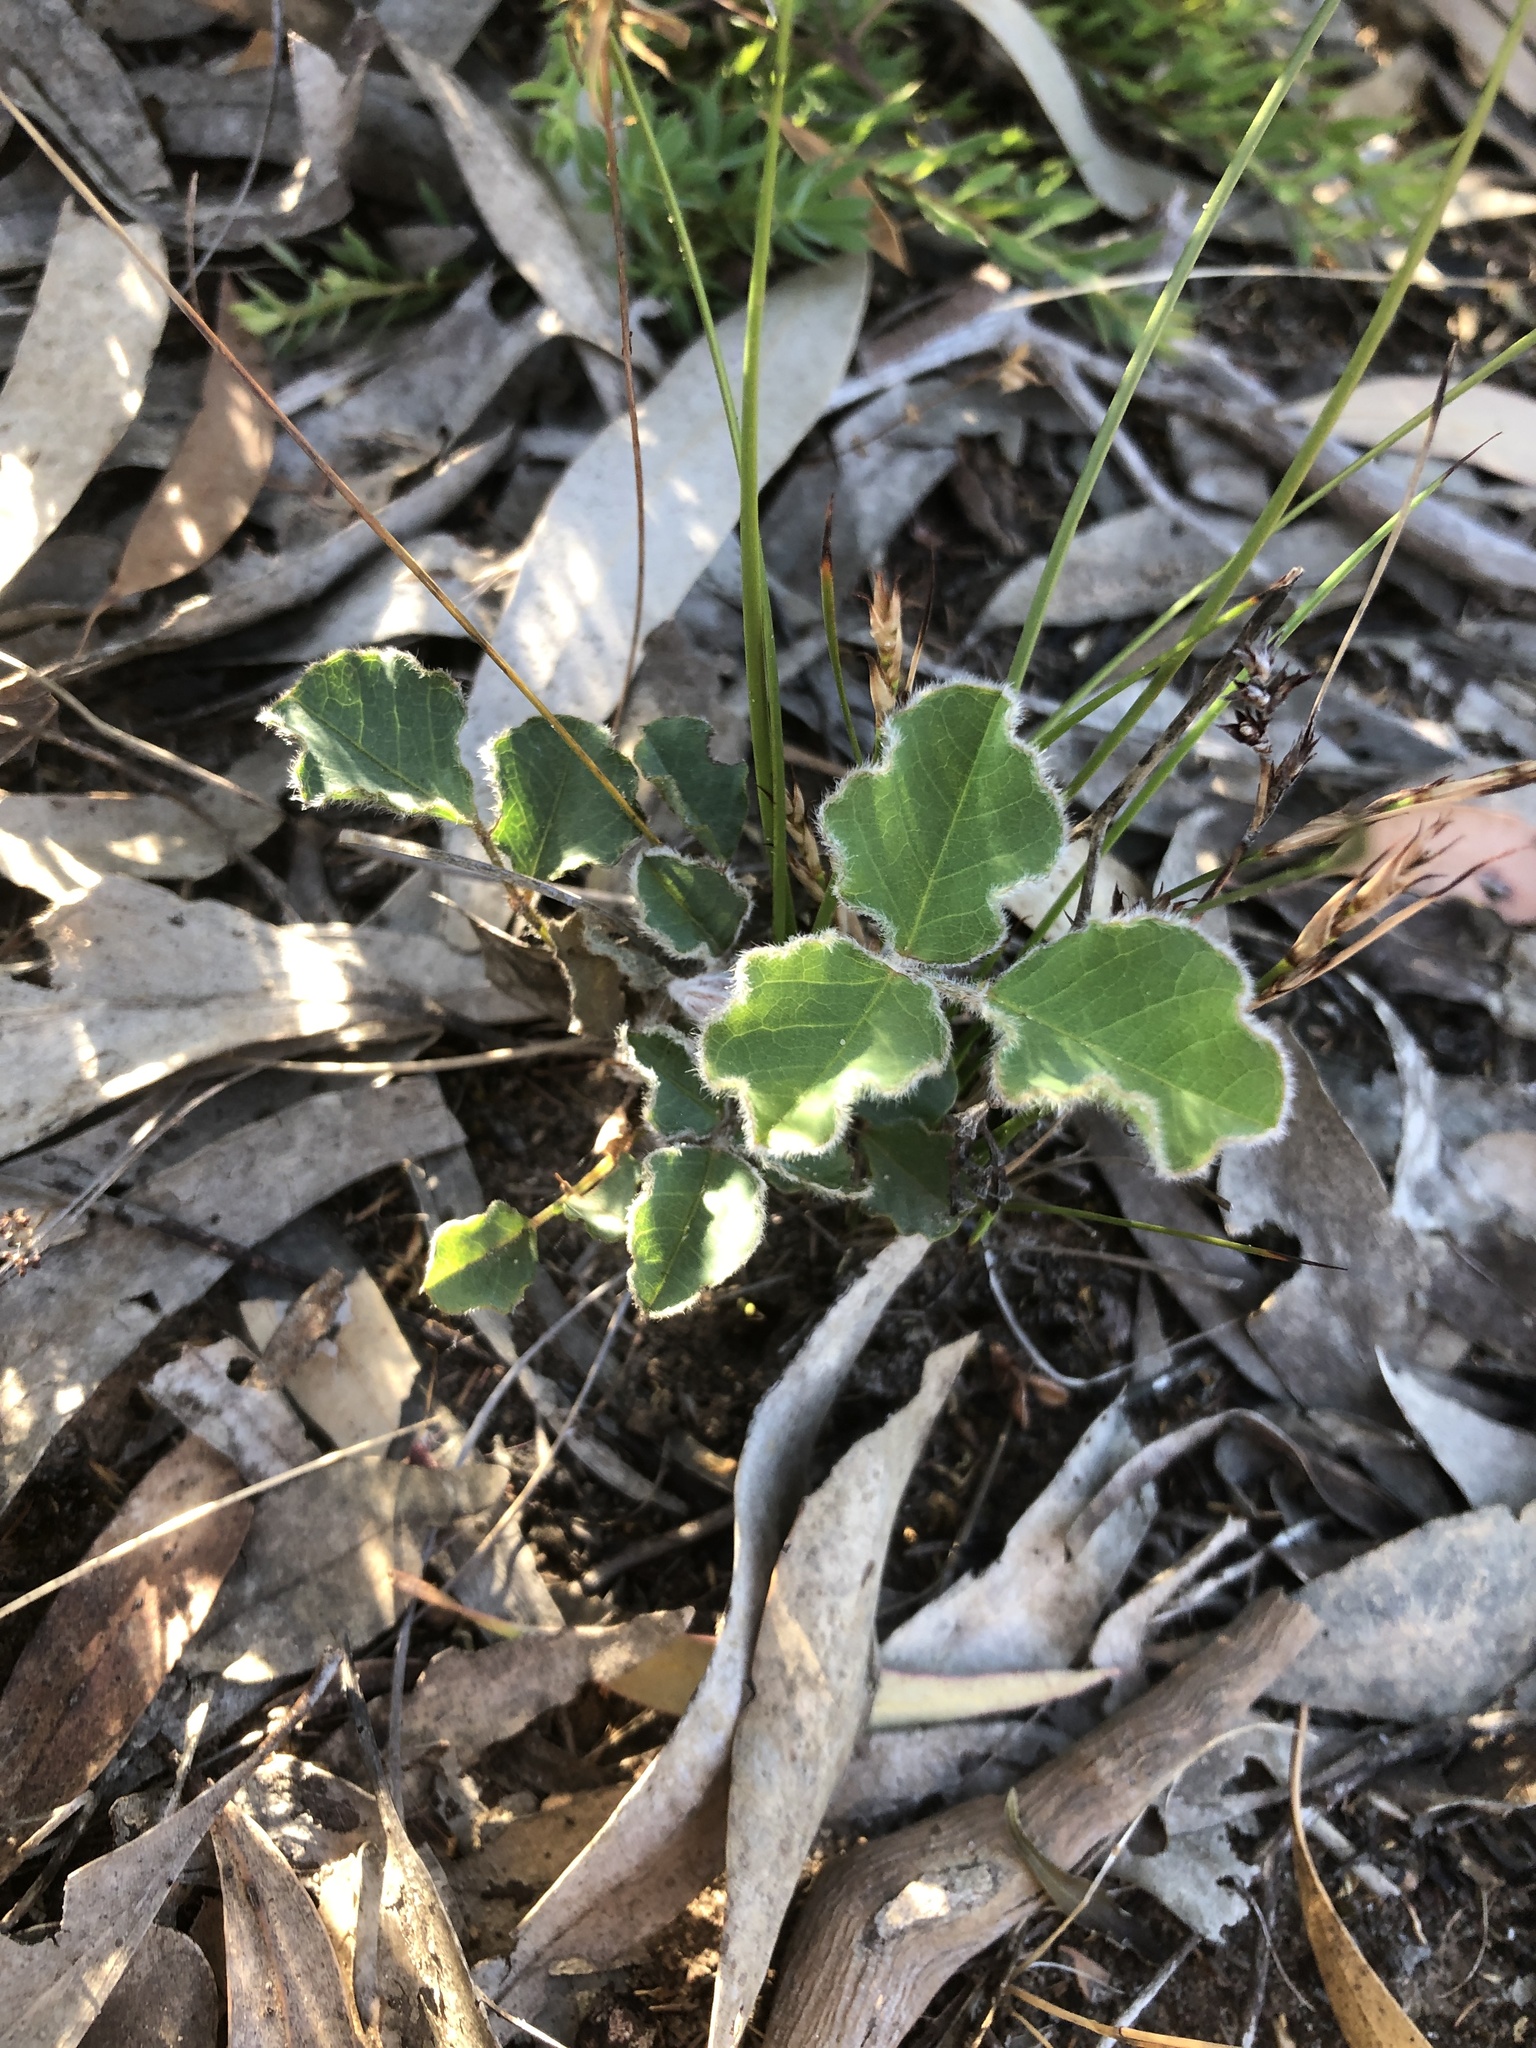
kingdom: Plantae
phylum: Tracheophyta
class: Magnoliopsida
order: Fabales
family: Fabaceae
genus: Kennedia
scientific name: Kennedia prostrata
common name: Running-postman
